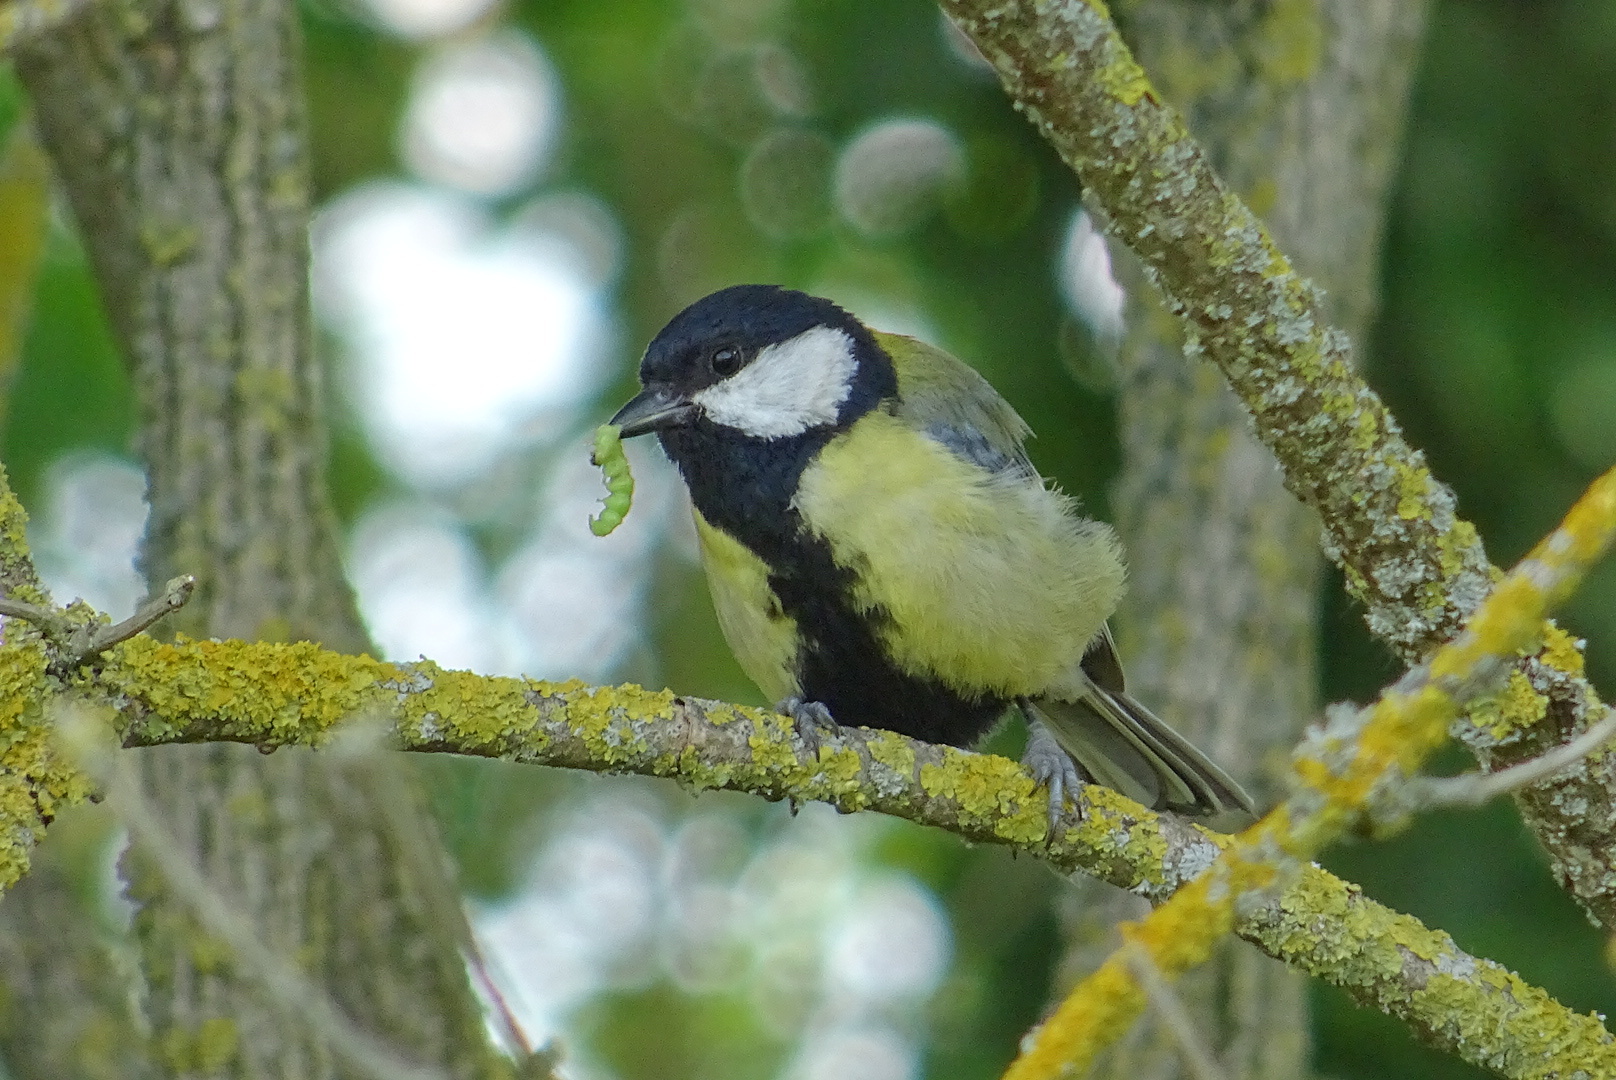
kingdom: Animalia
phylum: Chordata
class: Aves
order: Passeriformes
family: Paridae
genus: Parus
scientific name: Parus major
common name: Great tit
